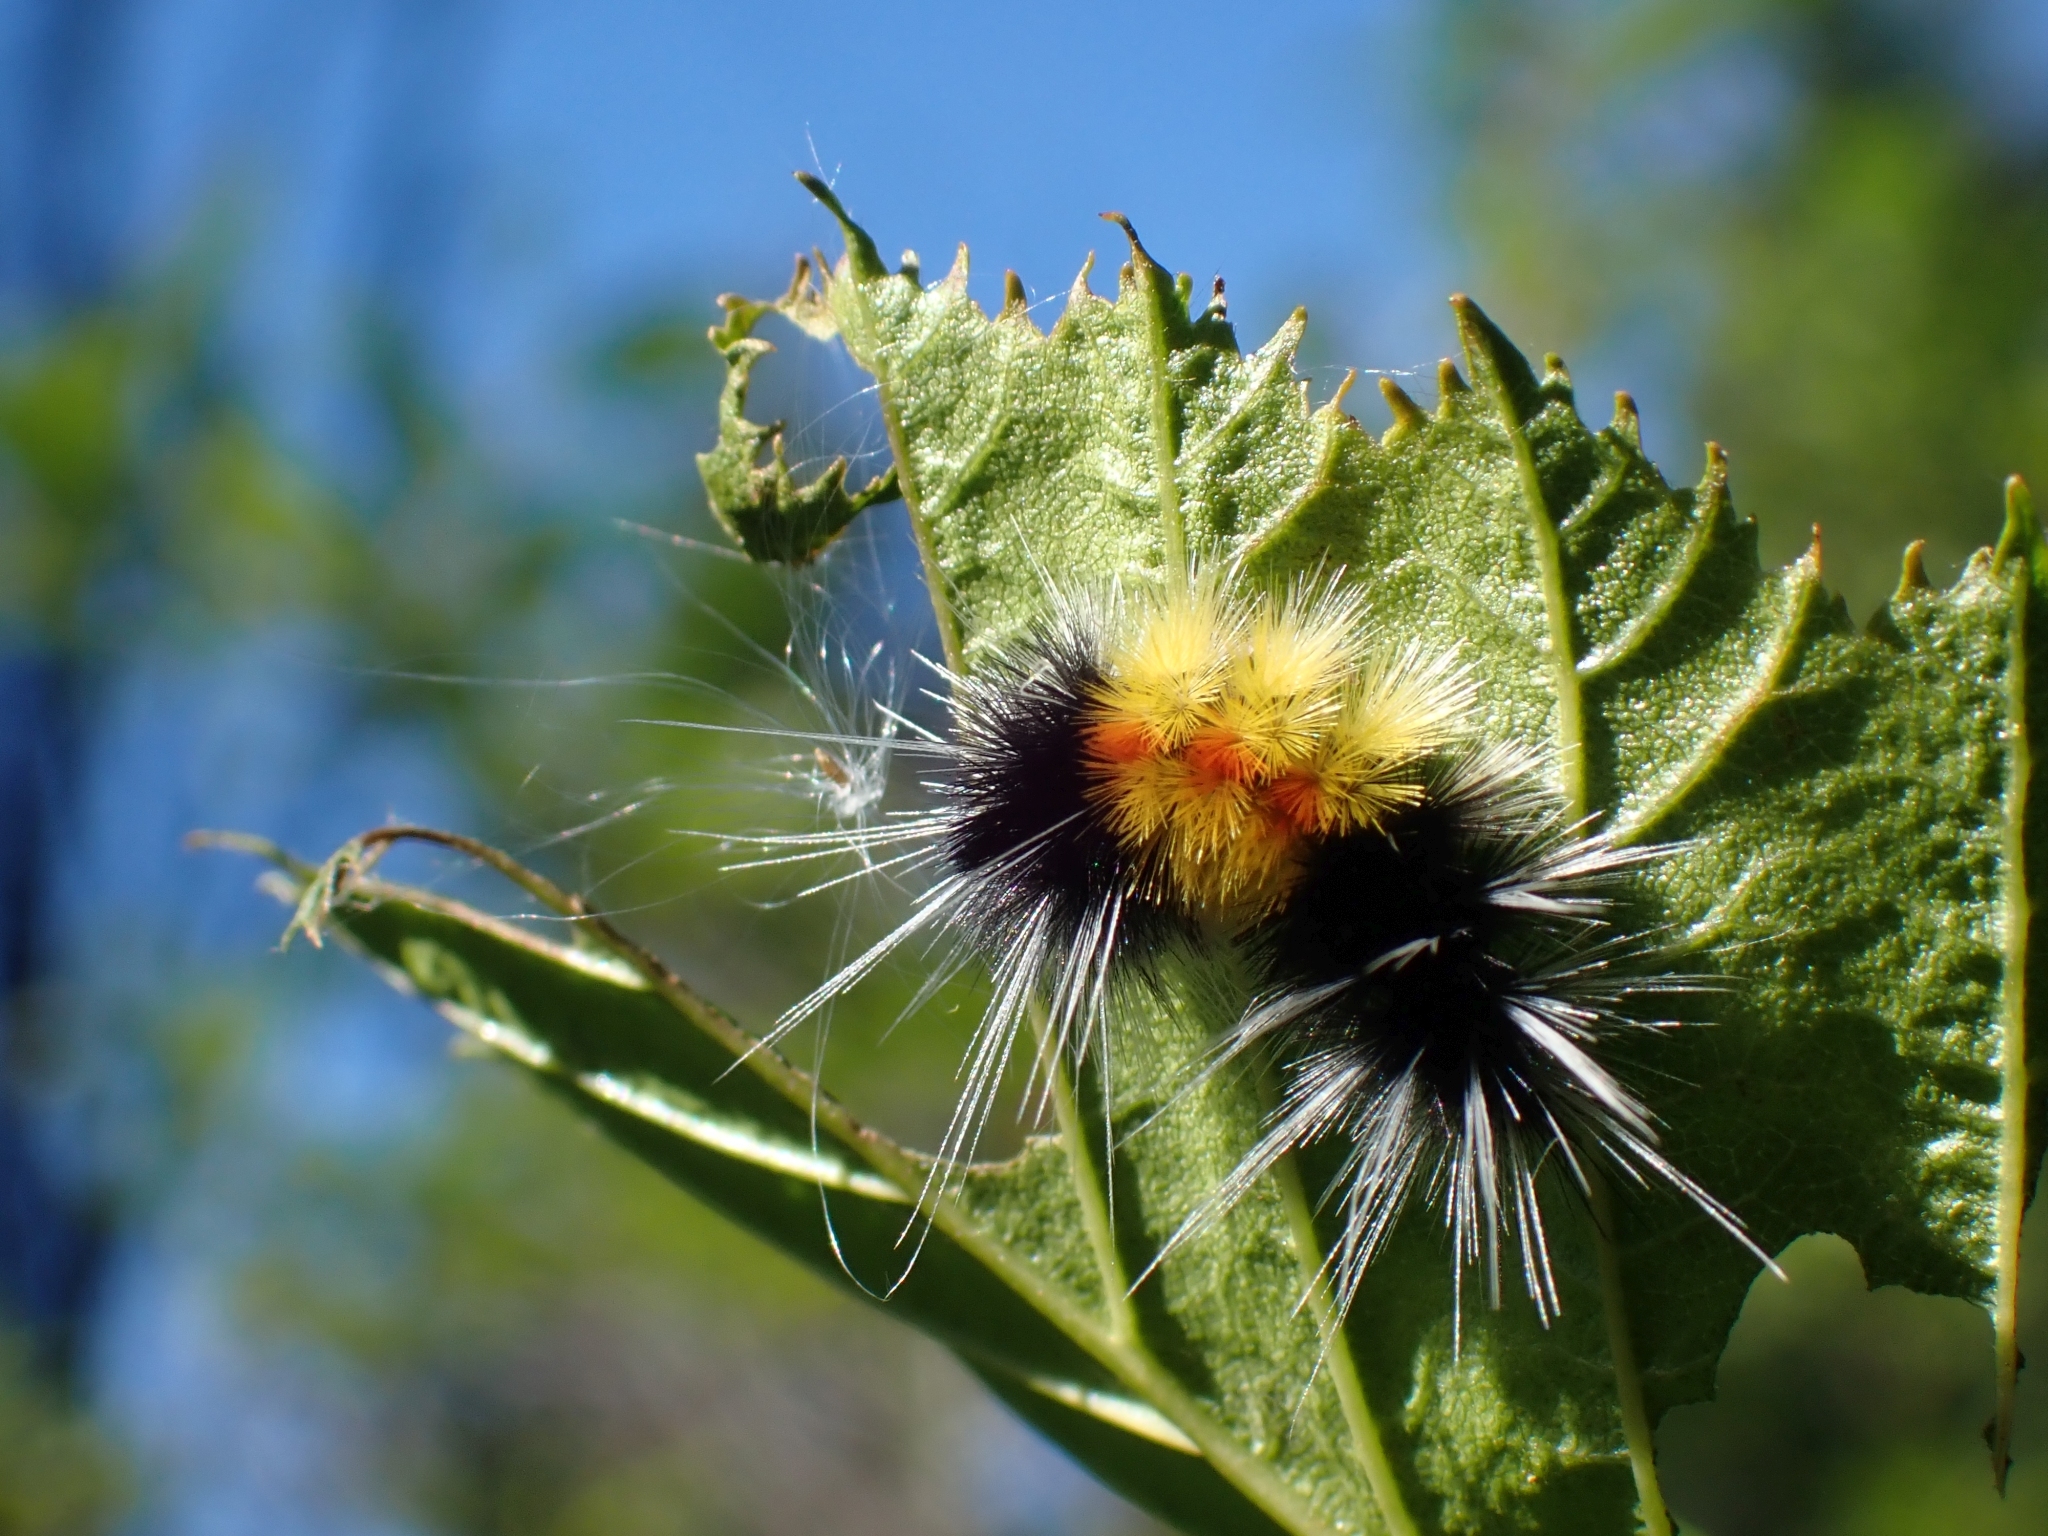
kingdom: Animalia
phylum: Arthropoda
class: Insecta
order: Lepidoptera
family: Erebidae
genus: Lophocampa
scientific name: Lophocampa maculata
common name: Spotted tussock moth
